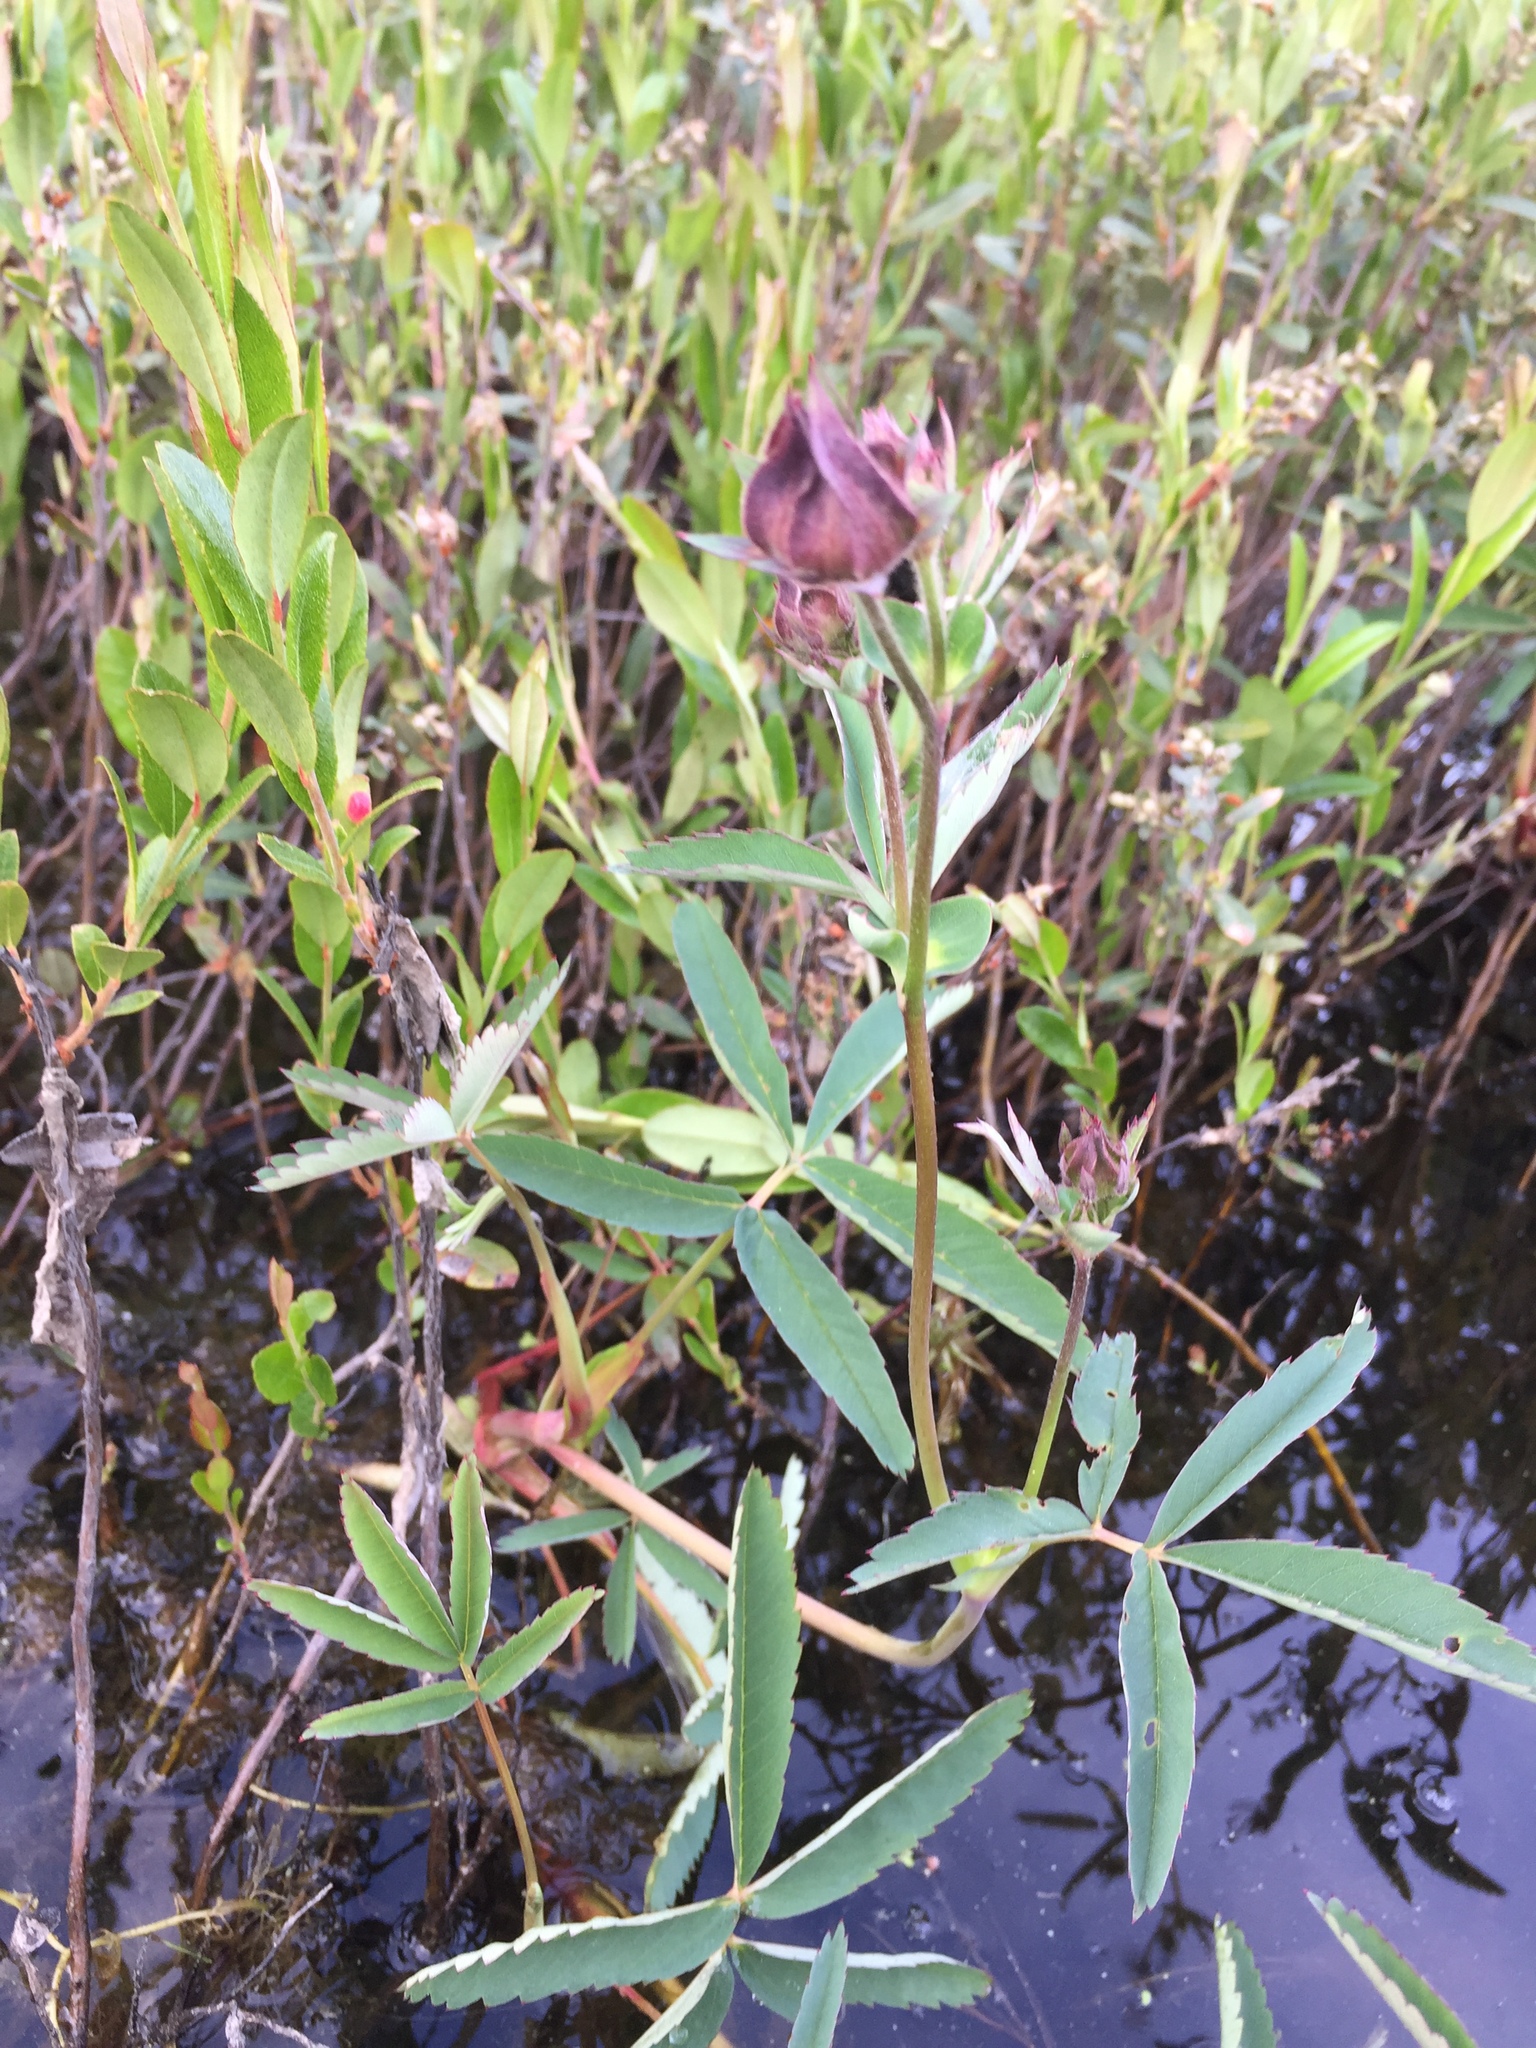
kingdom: Plantae
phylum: Tracheophyta
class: Magnoliopsida
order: Rosales
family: Rosaceae
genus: Comarum
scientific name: Comarum palustre
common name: Marsh cinquefoil
